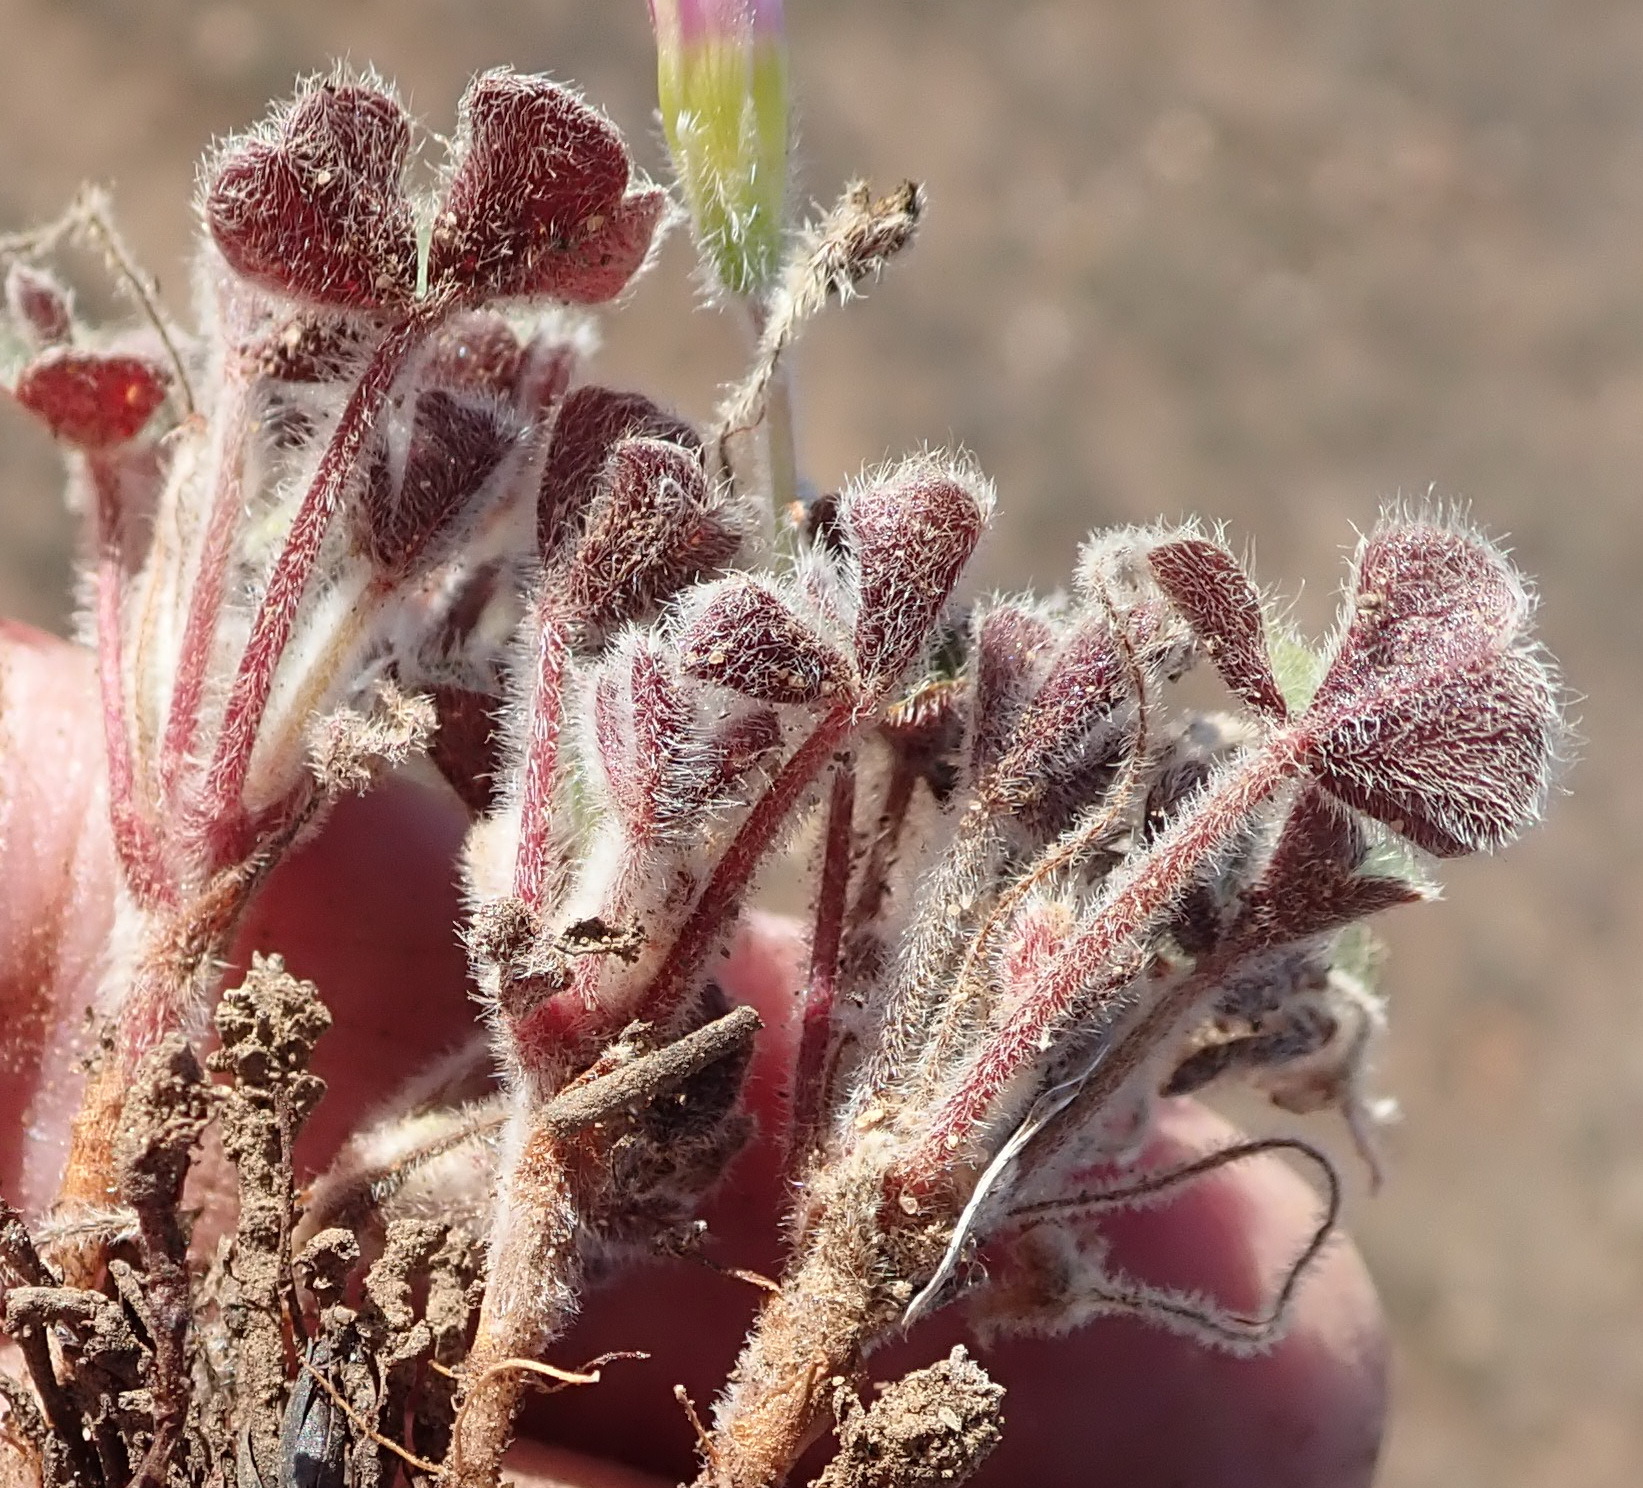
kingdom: Plantae
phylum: Tracheophyta
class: Magnoliopsida
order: Oxalidales
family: Oxalidaceae
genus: Oxalis
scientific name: Oxalis imbricata
